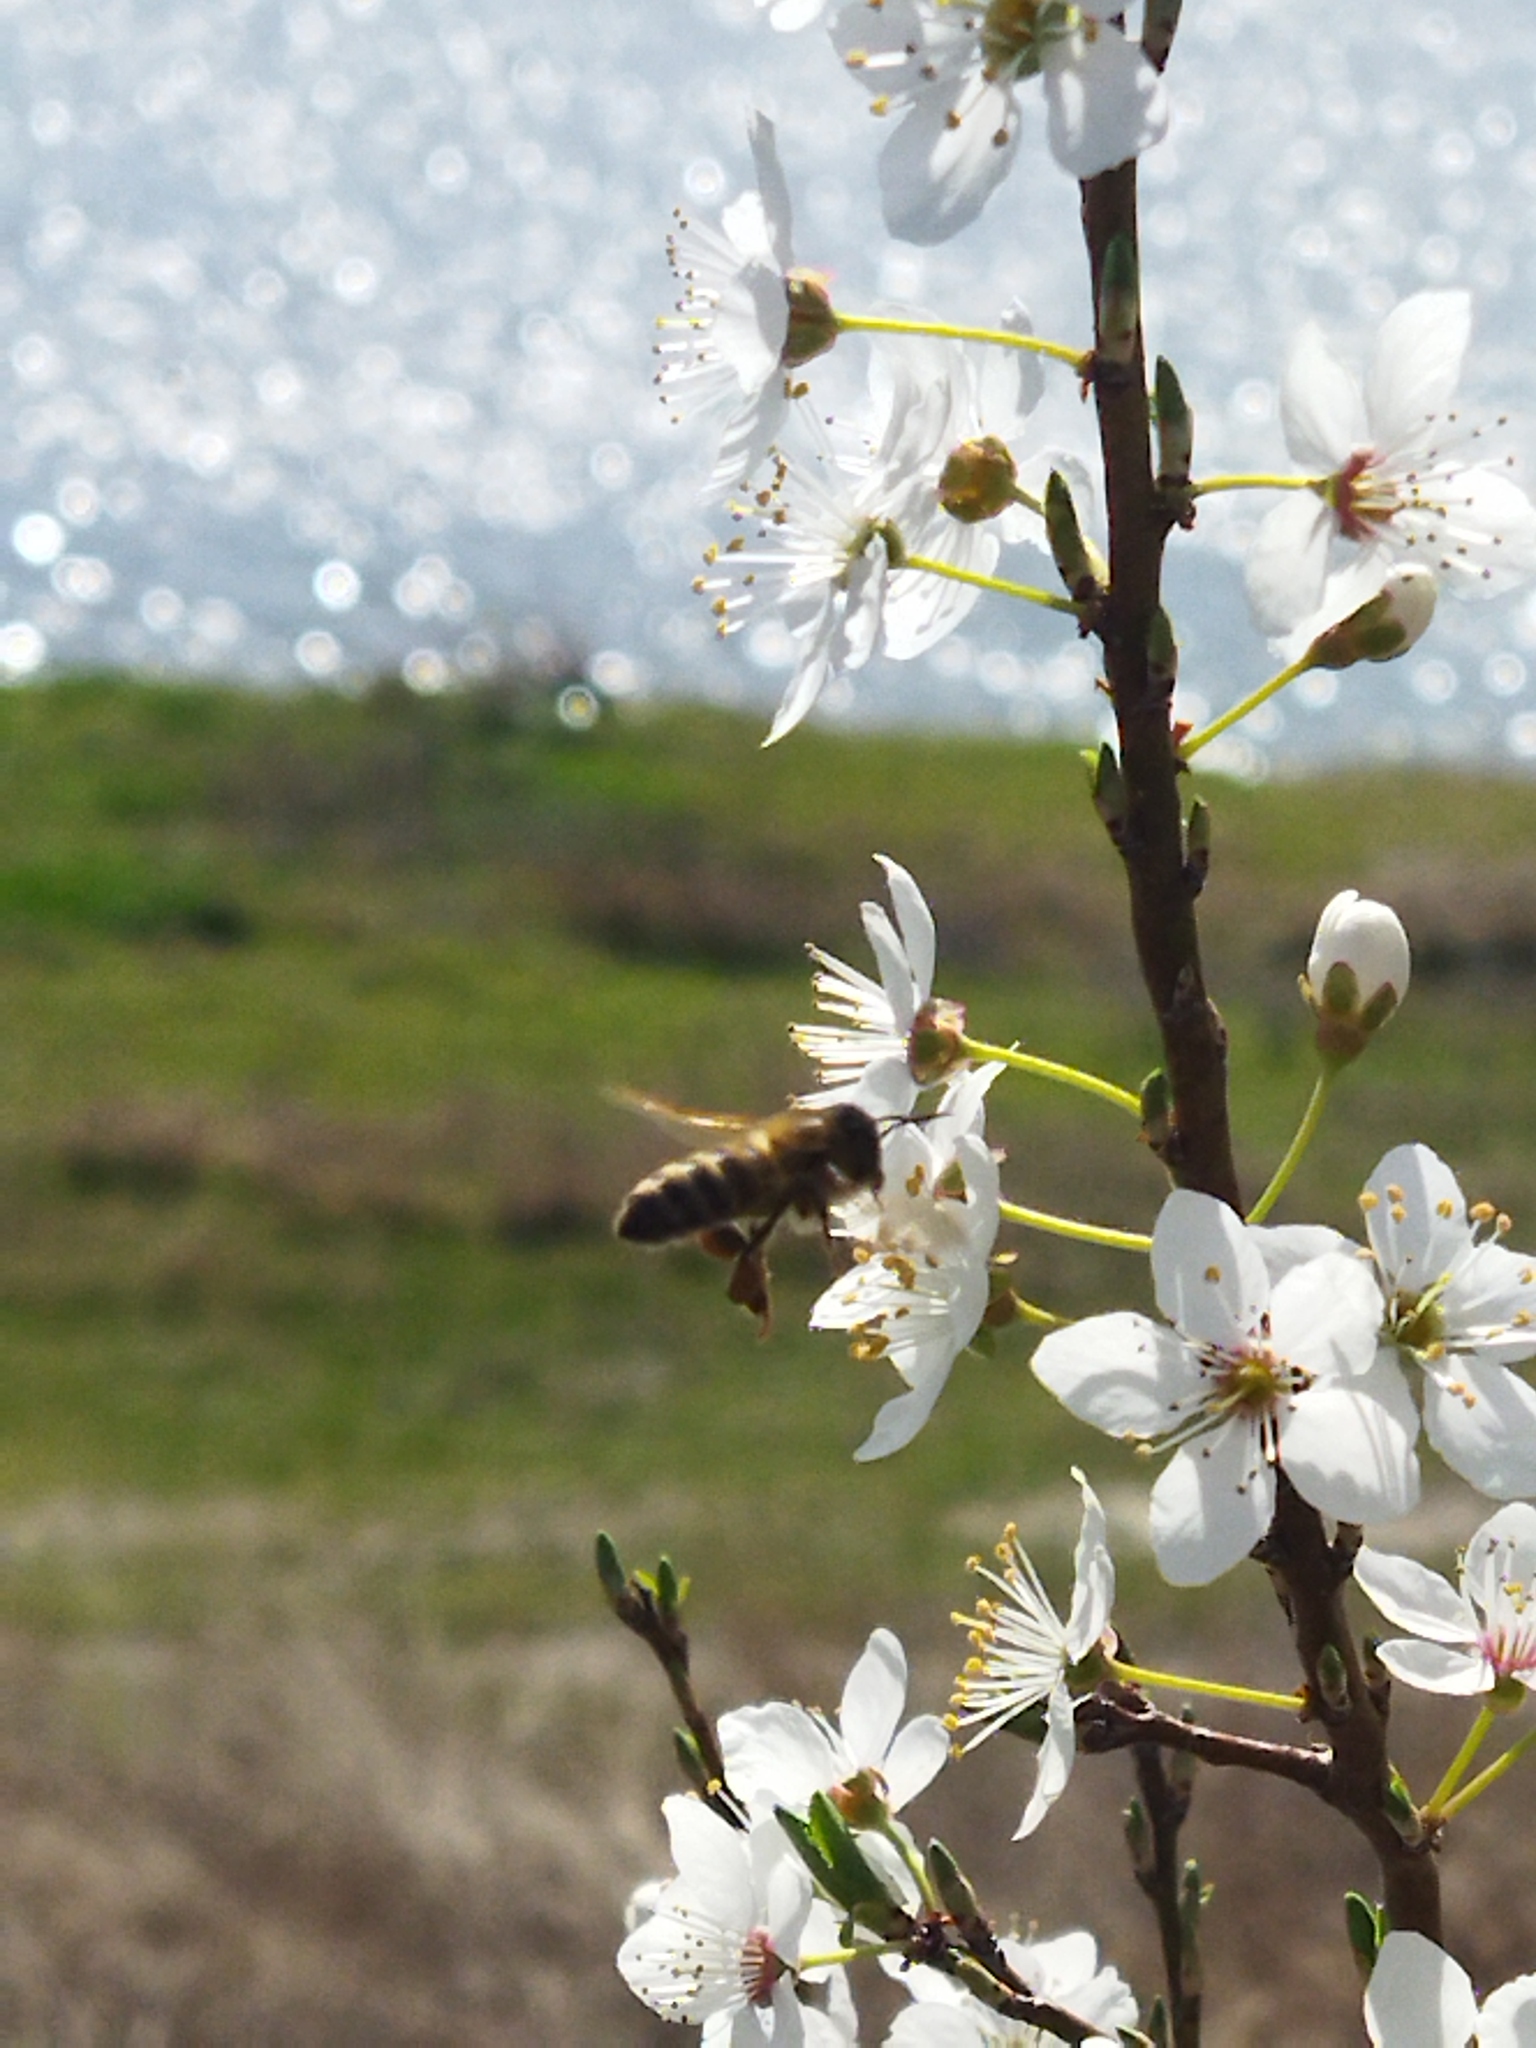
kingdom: Animalia
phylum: Arthropoda
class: Insecta
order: Hymenoptera
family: Apidae
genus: Apis
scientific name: Apis mellifera
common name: Honey bee
